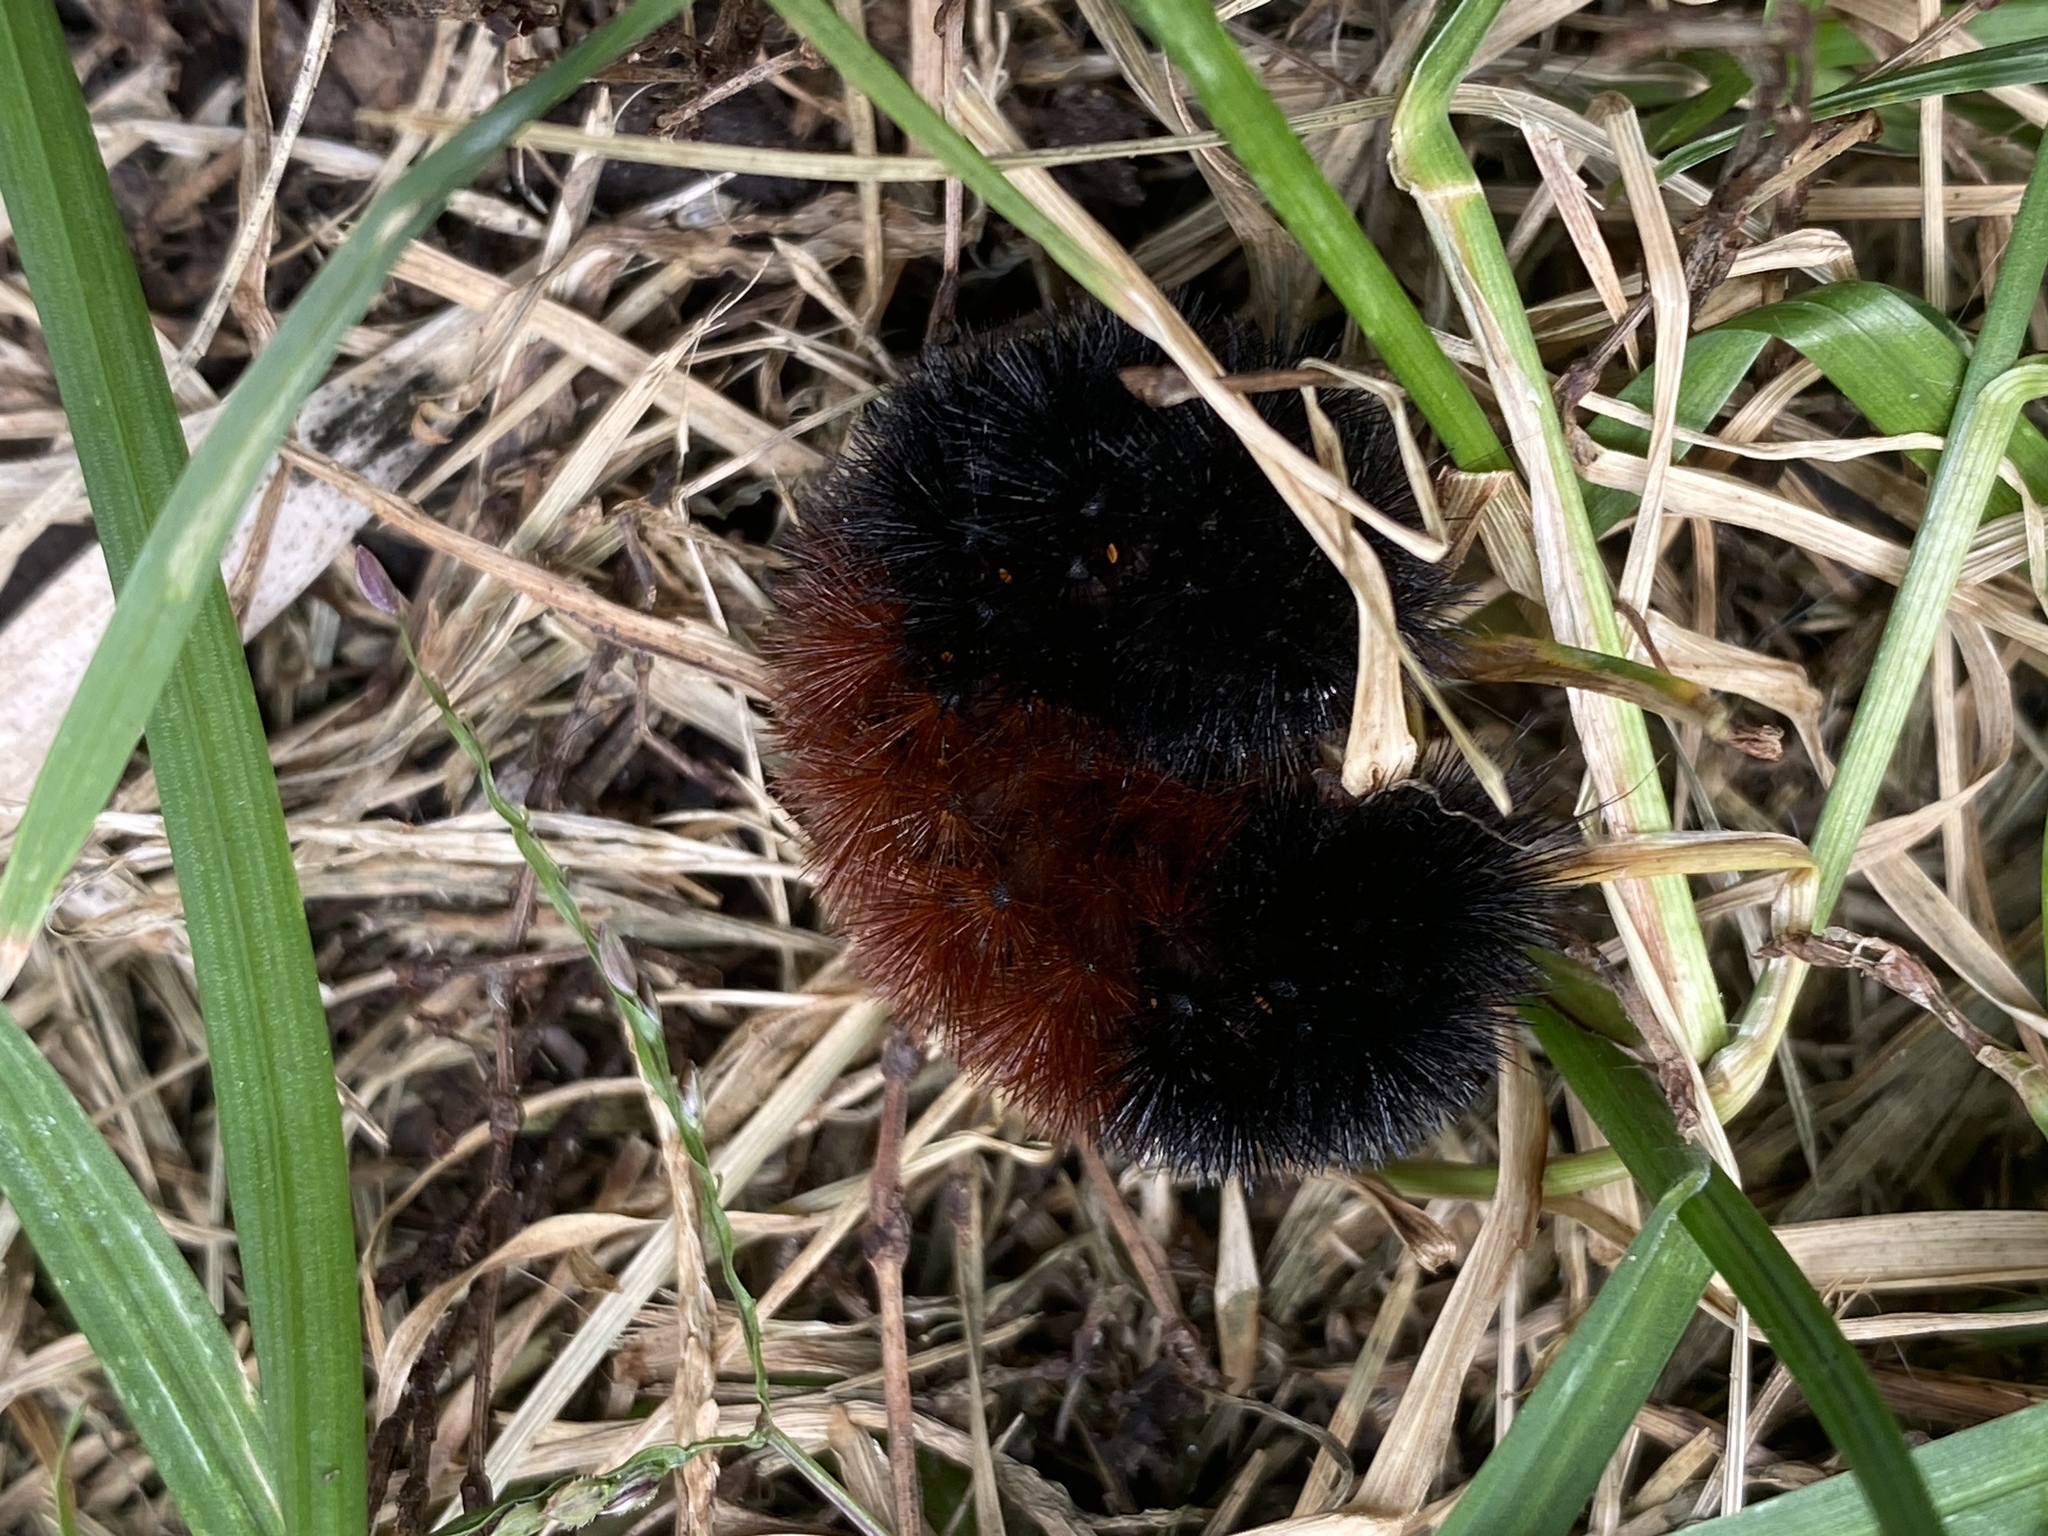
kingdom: Animalia
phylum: Arthropoda
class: Insecta
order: Lepidoptera
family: Erebidae
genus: Pyrrharctia
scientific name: Pyrrharctia isabella
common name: Isabella tiger moth
